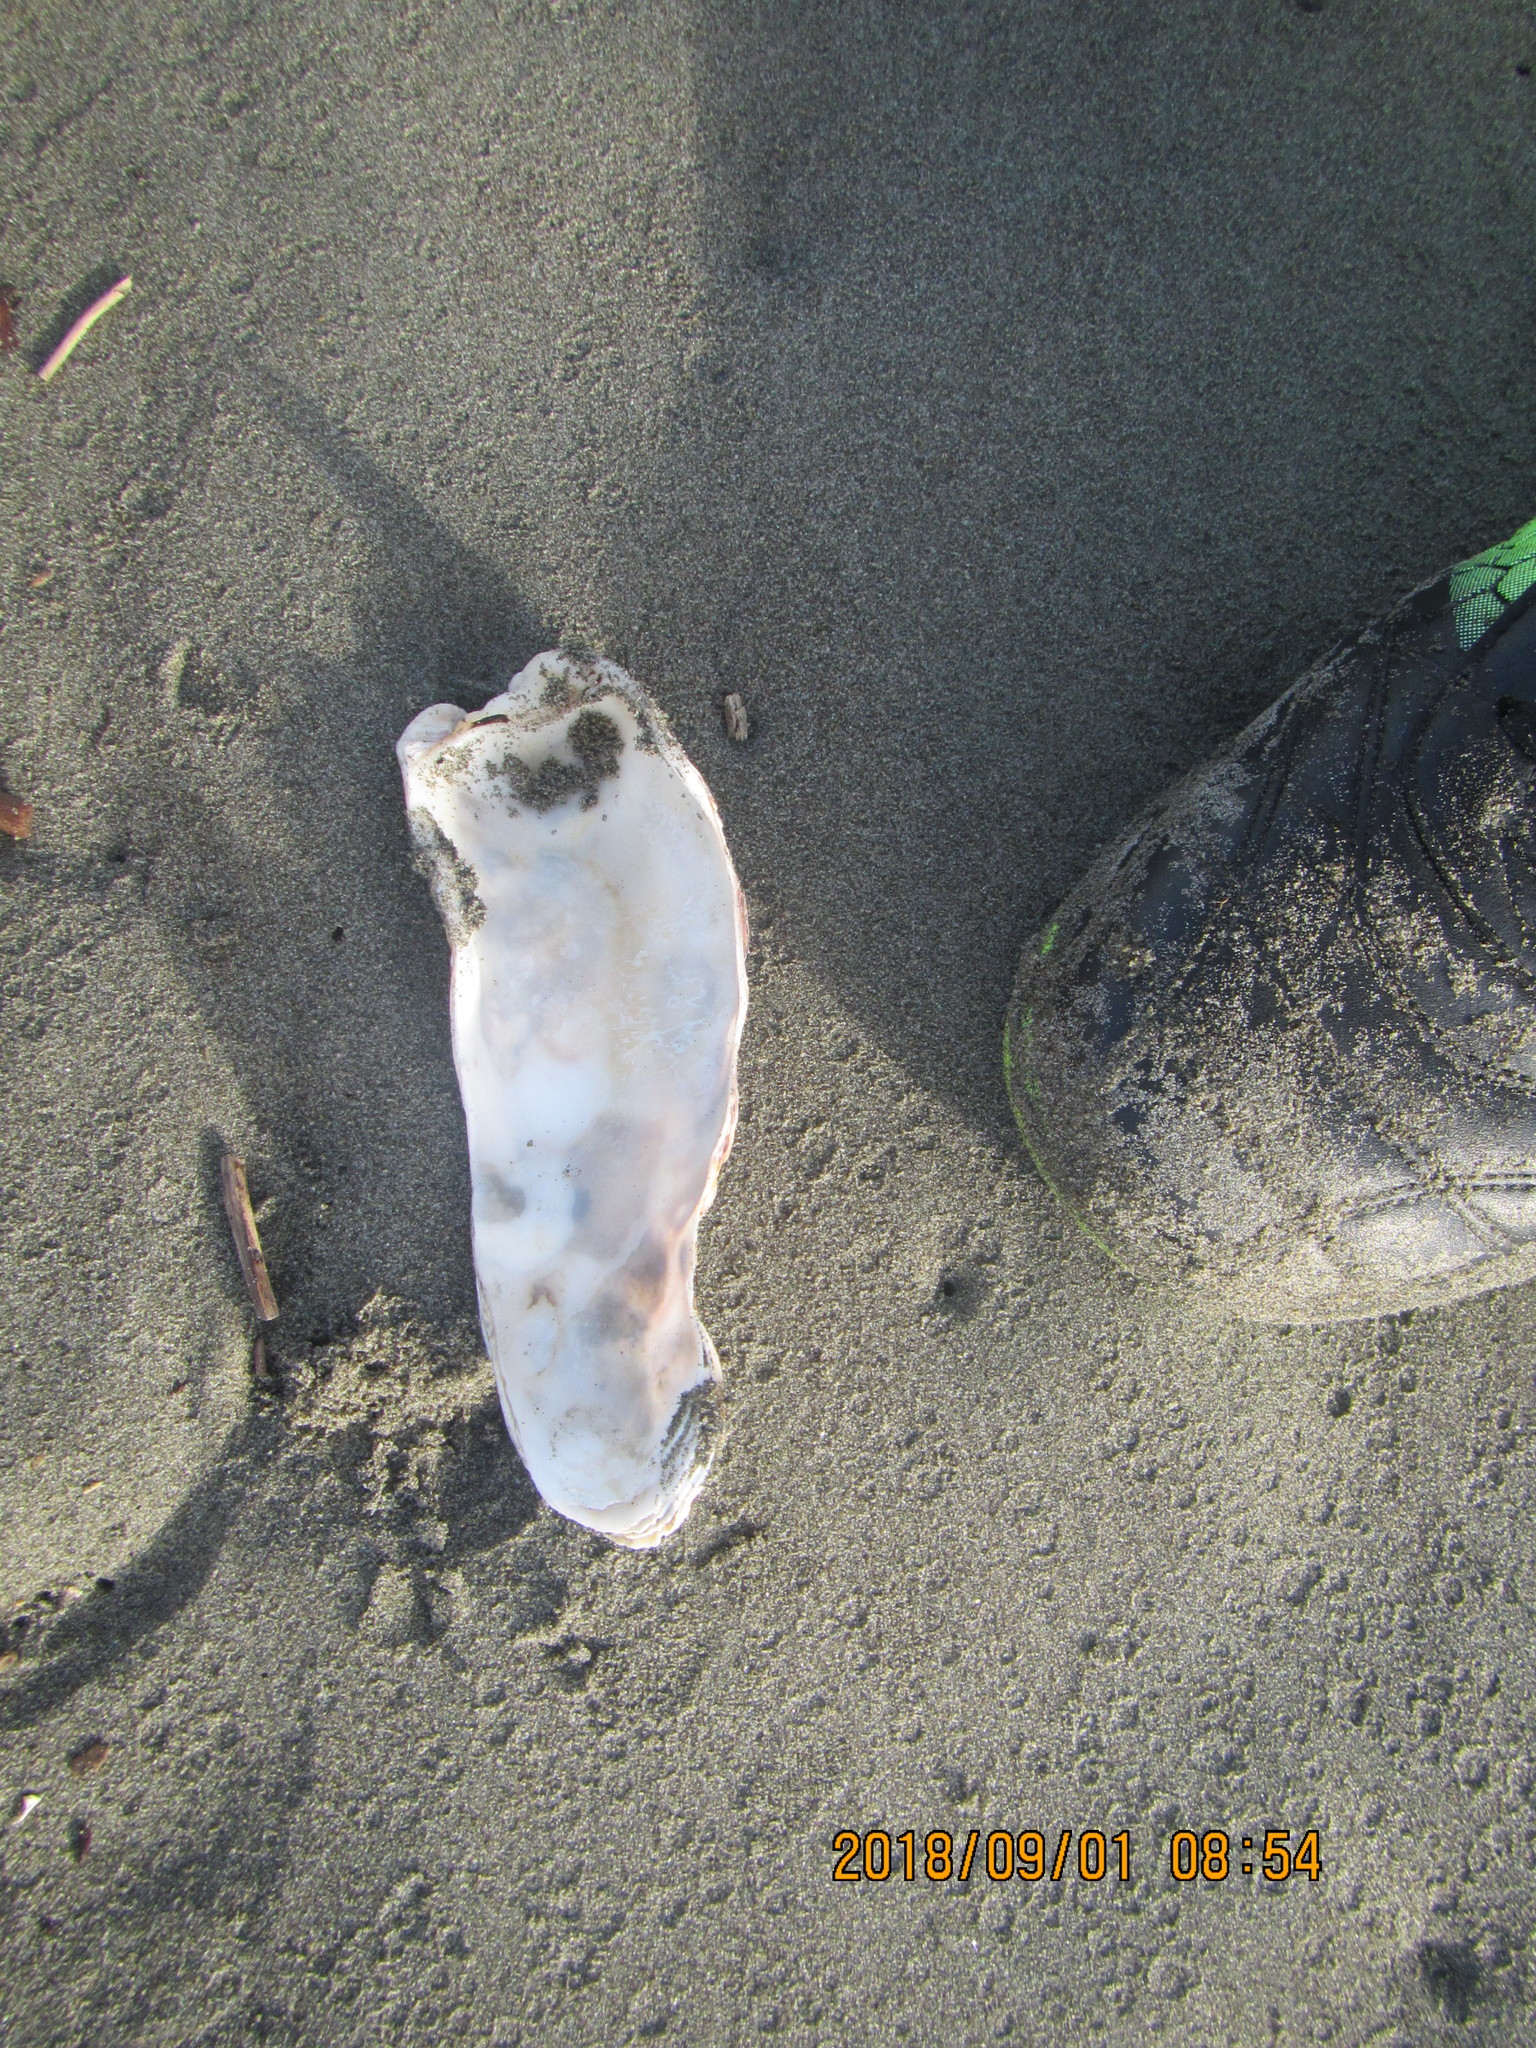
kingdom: Animalia
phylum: Mollusca
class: Bivalvia
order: Ostreida
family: Ostreidae
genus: Magallana
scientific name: Magallana gigas
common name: Pacific oyster
